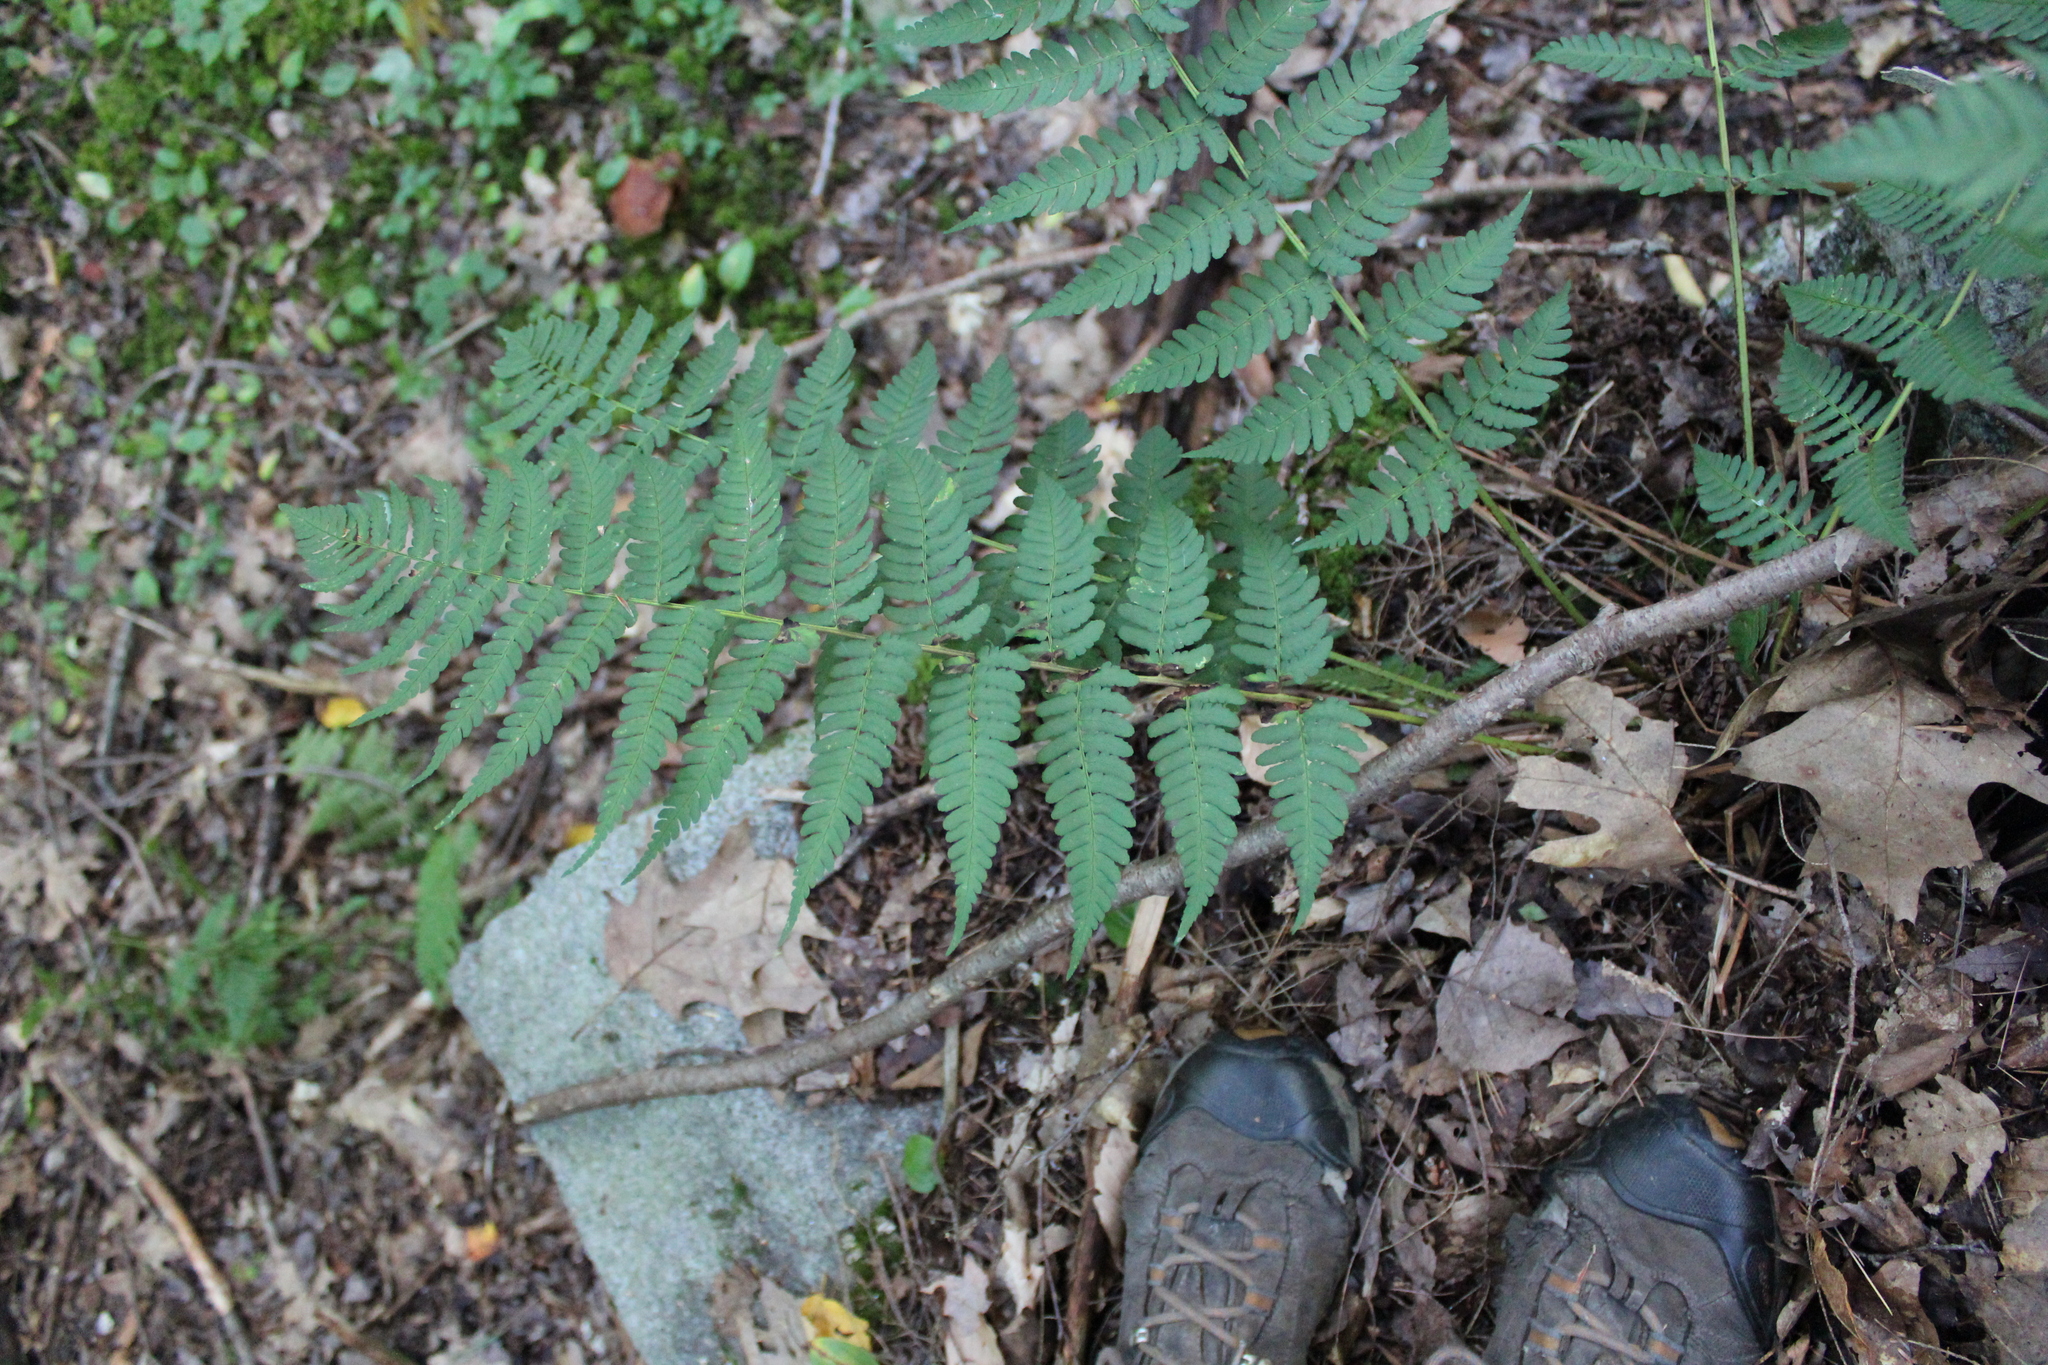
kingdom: Plantae
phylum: Tracheophyta
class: Polypodiopsida
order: Polypodiales
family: Dryopteridaceae
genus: Dryopteris
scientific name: Dryopteris marginalis
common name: Marginal wood fern
